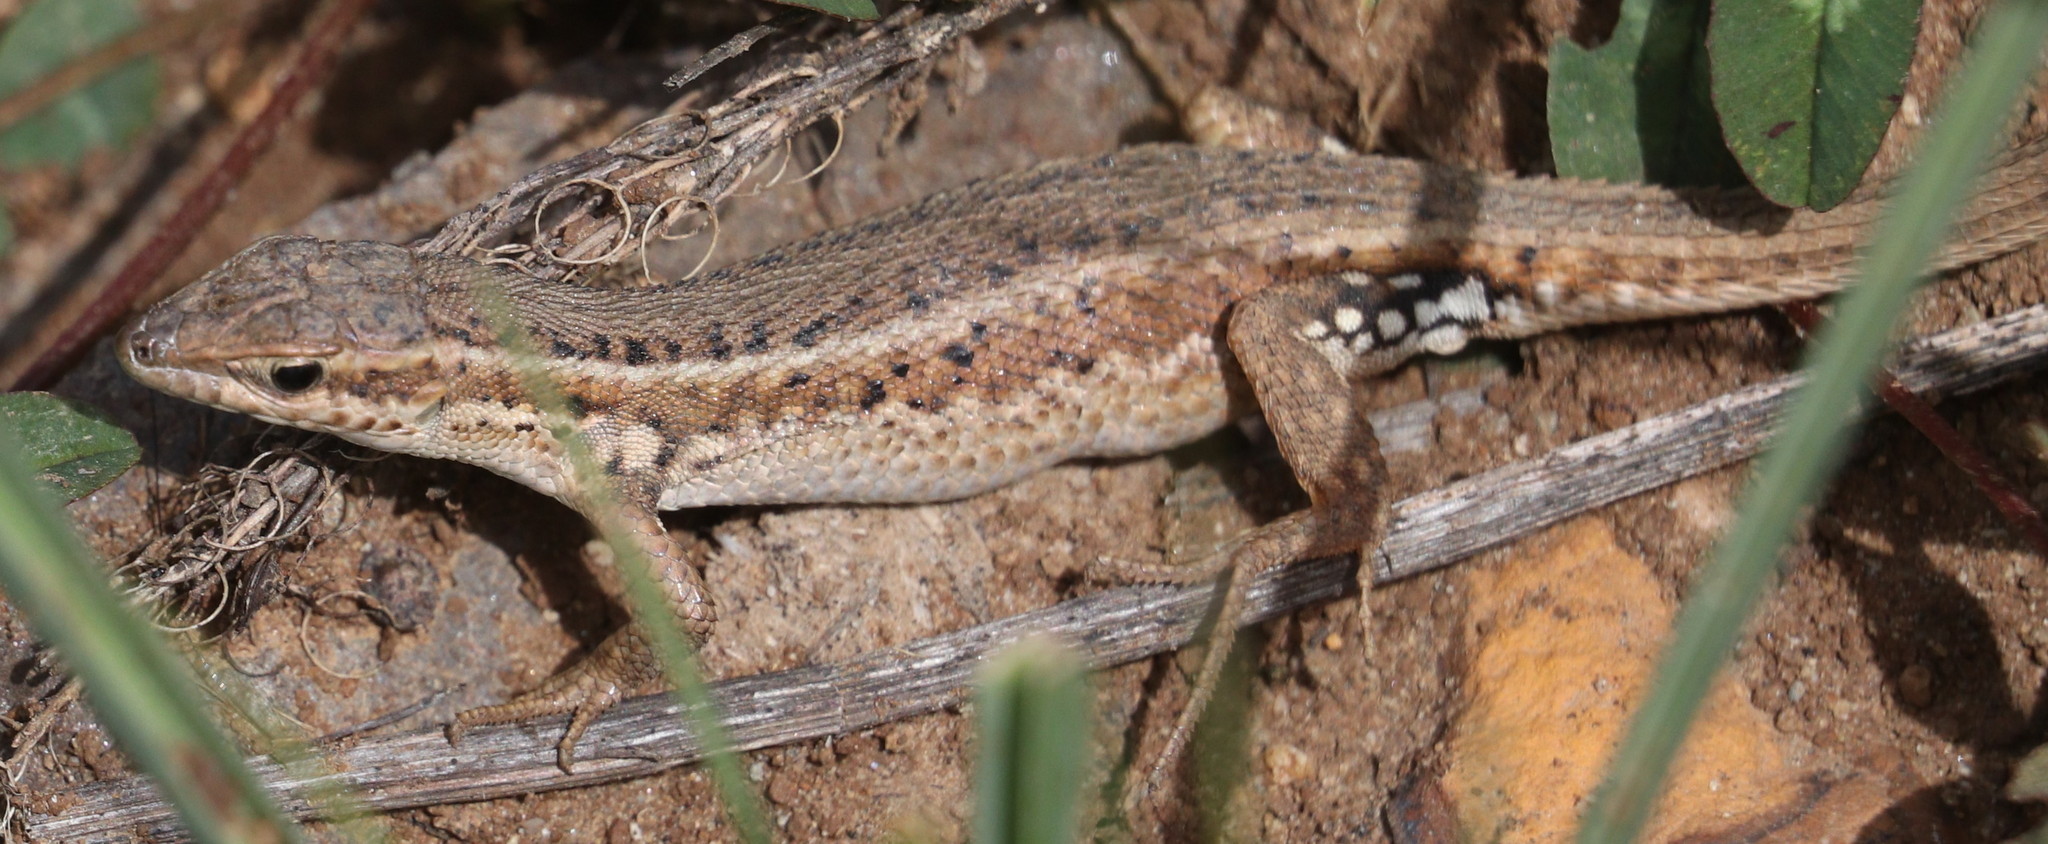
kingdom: Animalia
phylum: Chordata
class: Squamata
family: Lacertidae
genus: Ophisops
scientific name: Ophisops elegans
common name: Snake-eyed lizard
